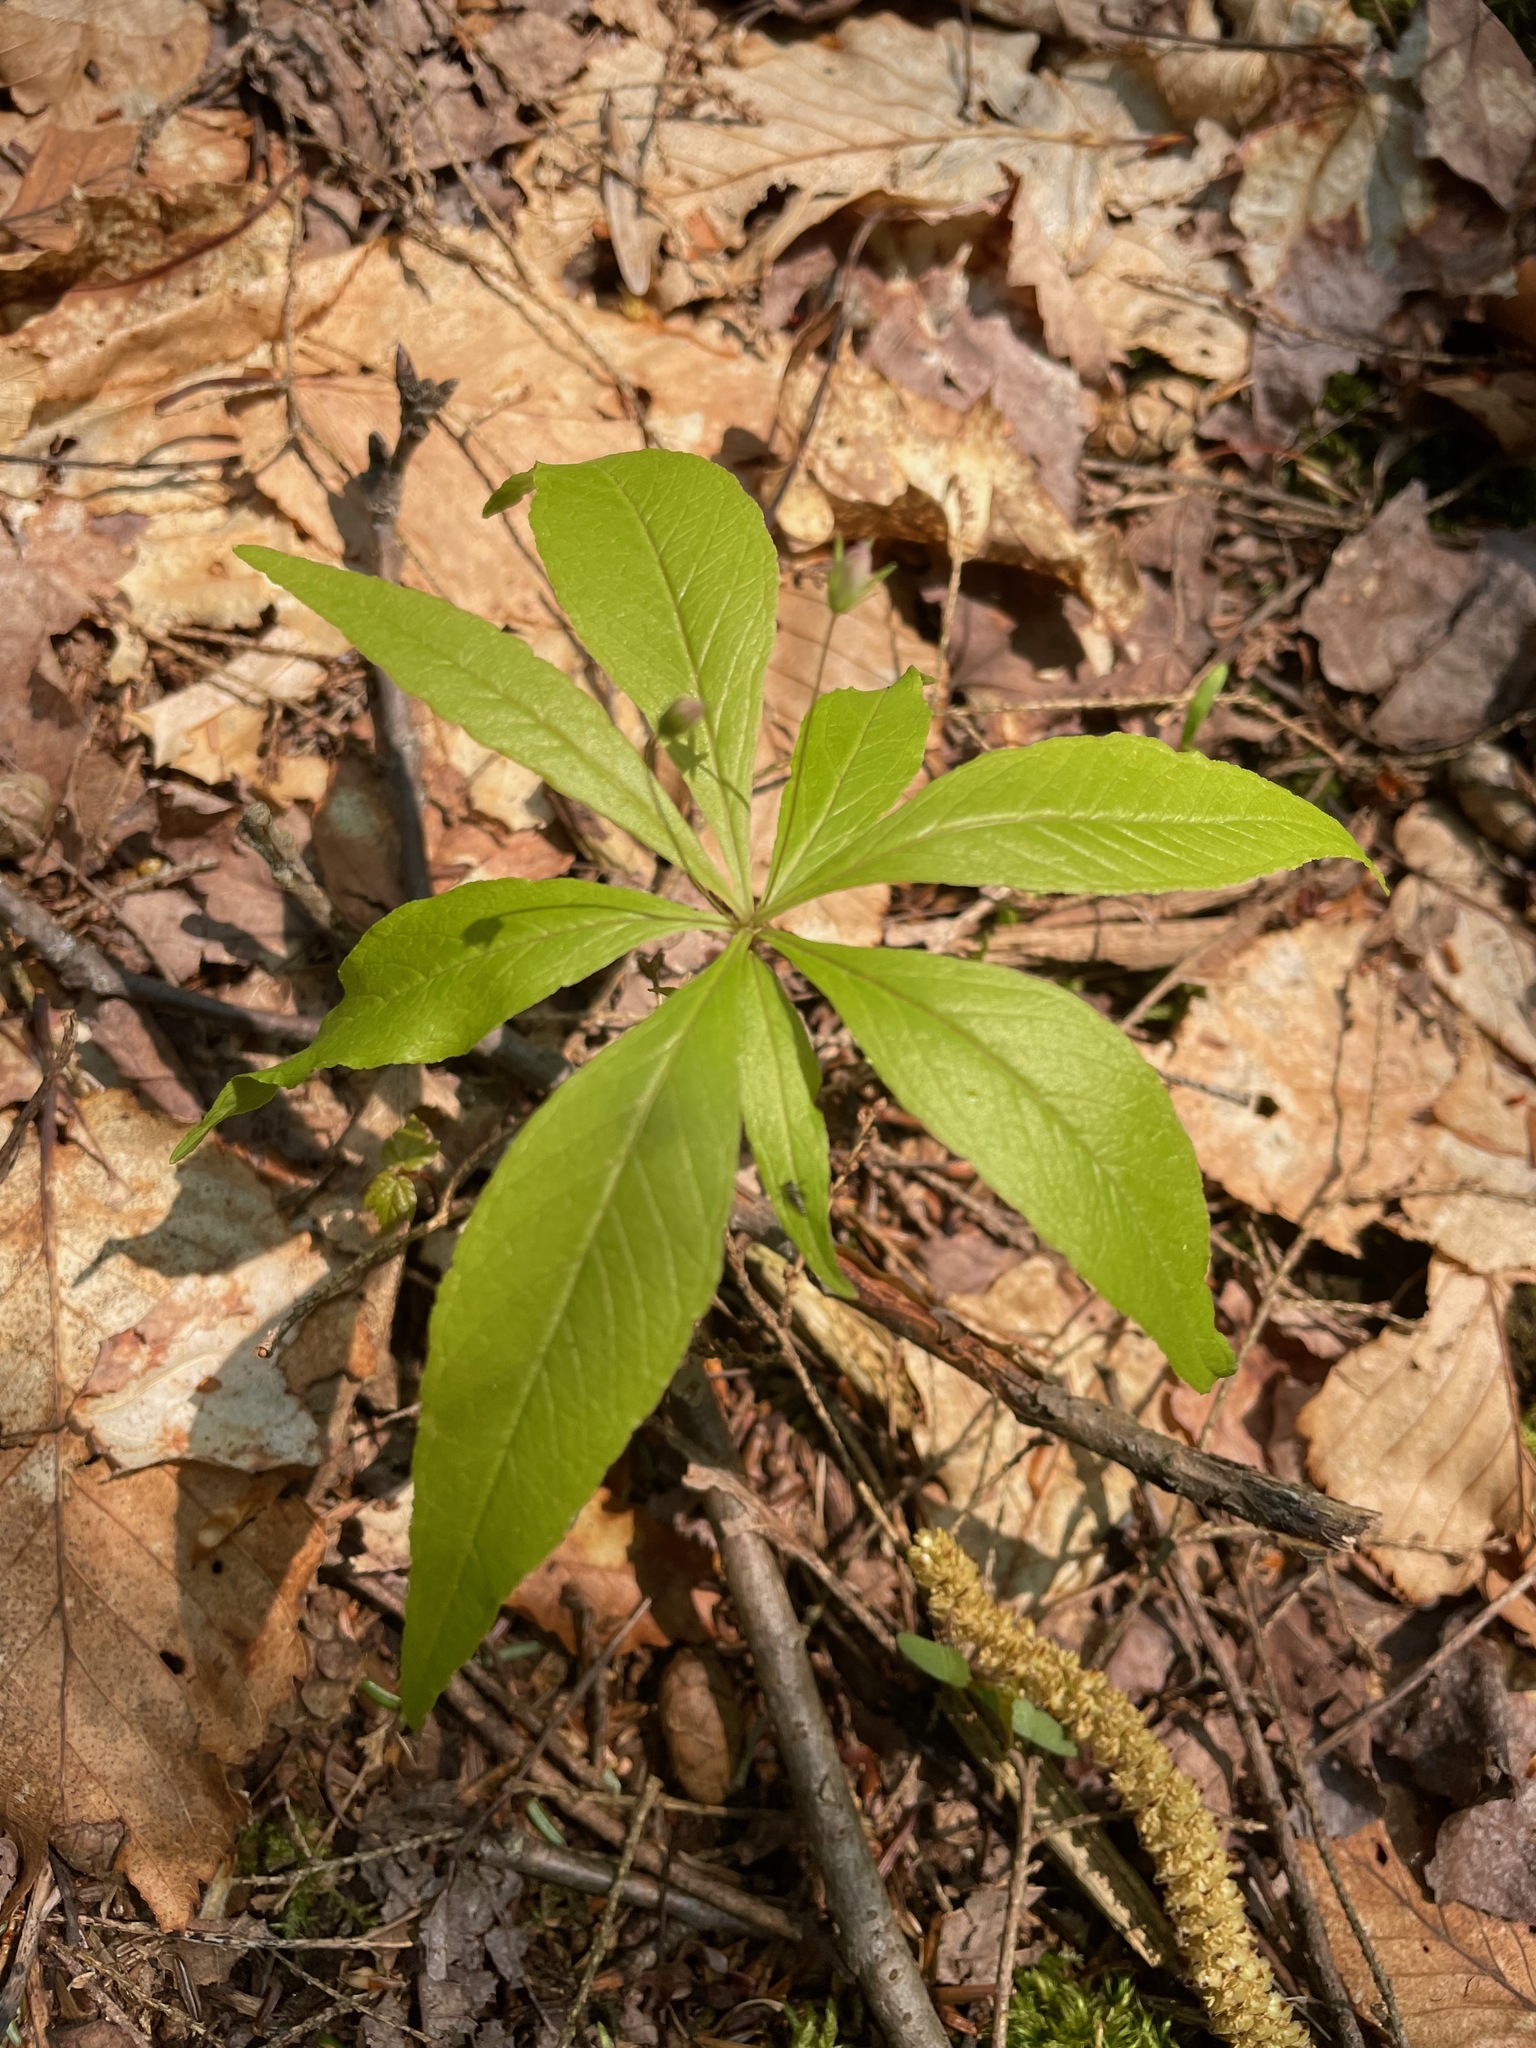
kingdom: Plantae
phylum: Tracheophyta
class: Magnoliopsida
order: Ericales
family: Primulaceae
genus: Lysimachia
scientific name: Lysimachia borealis
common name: American starflower
